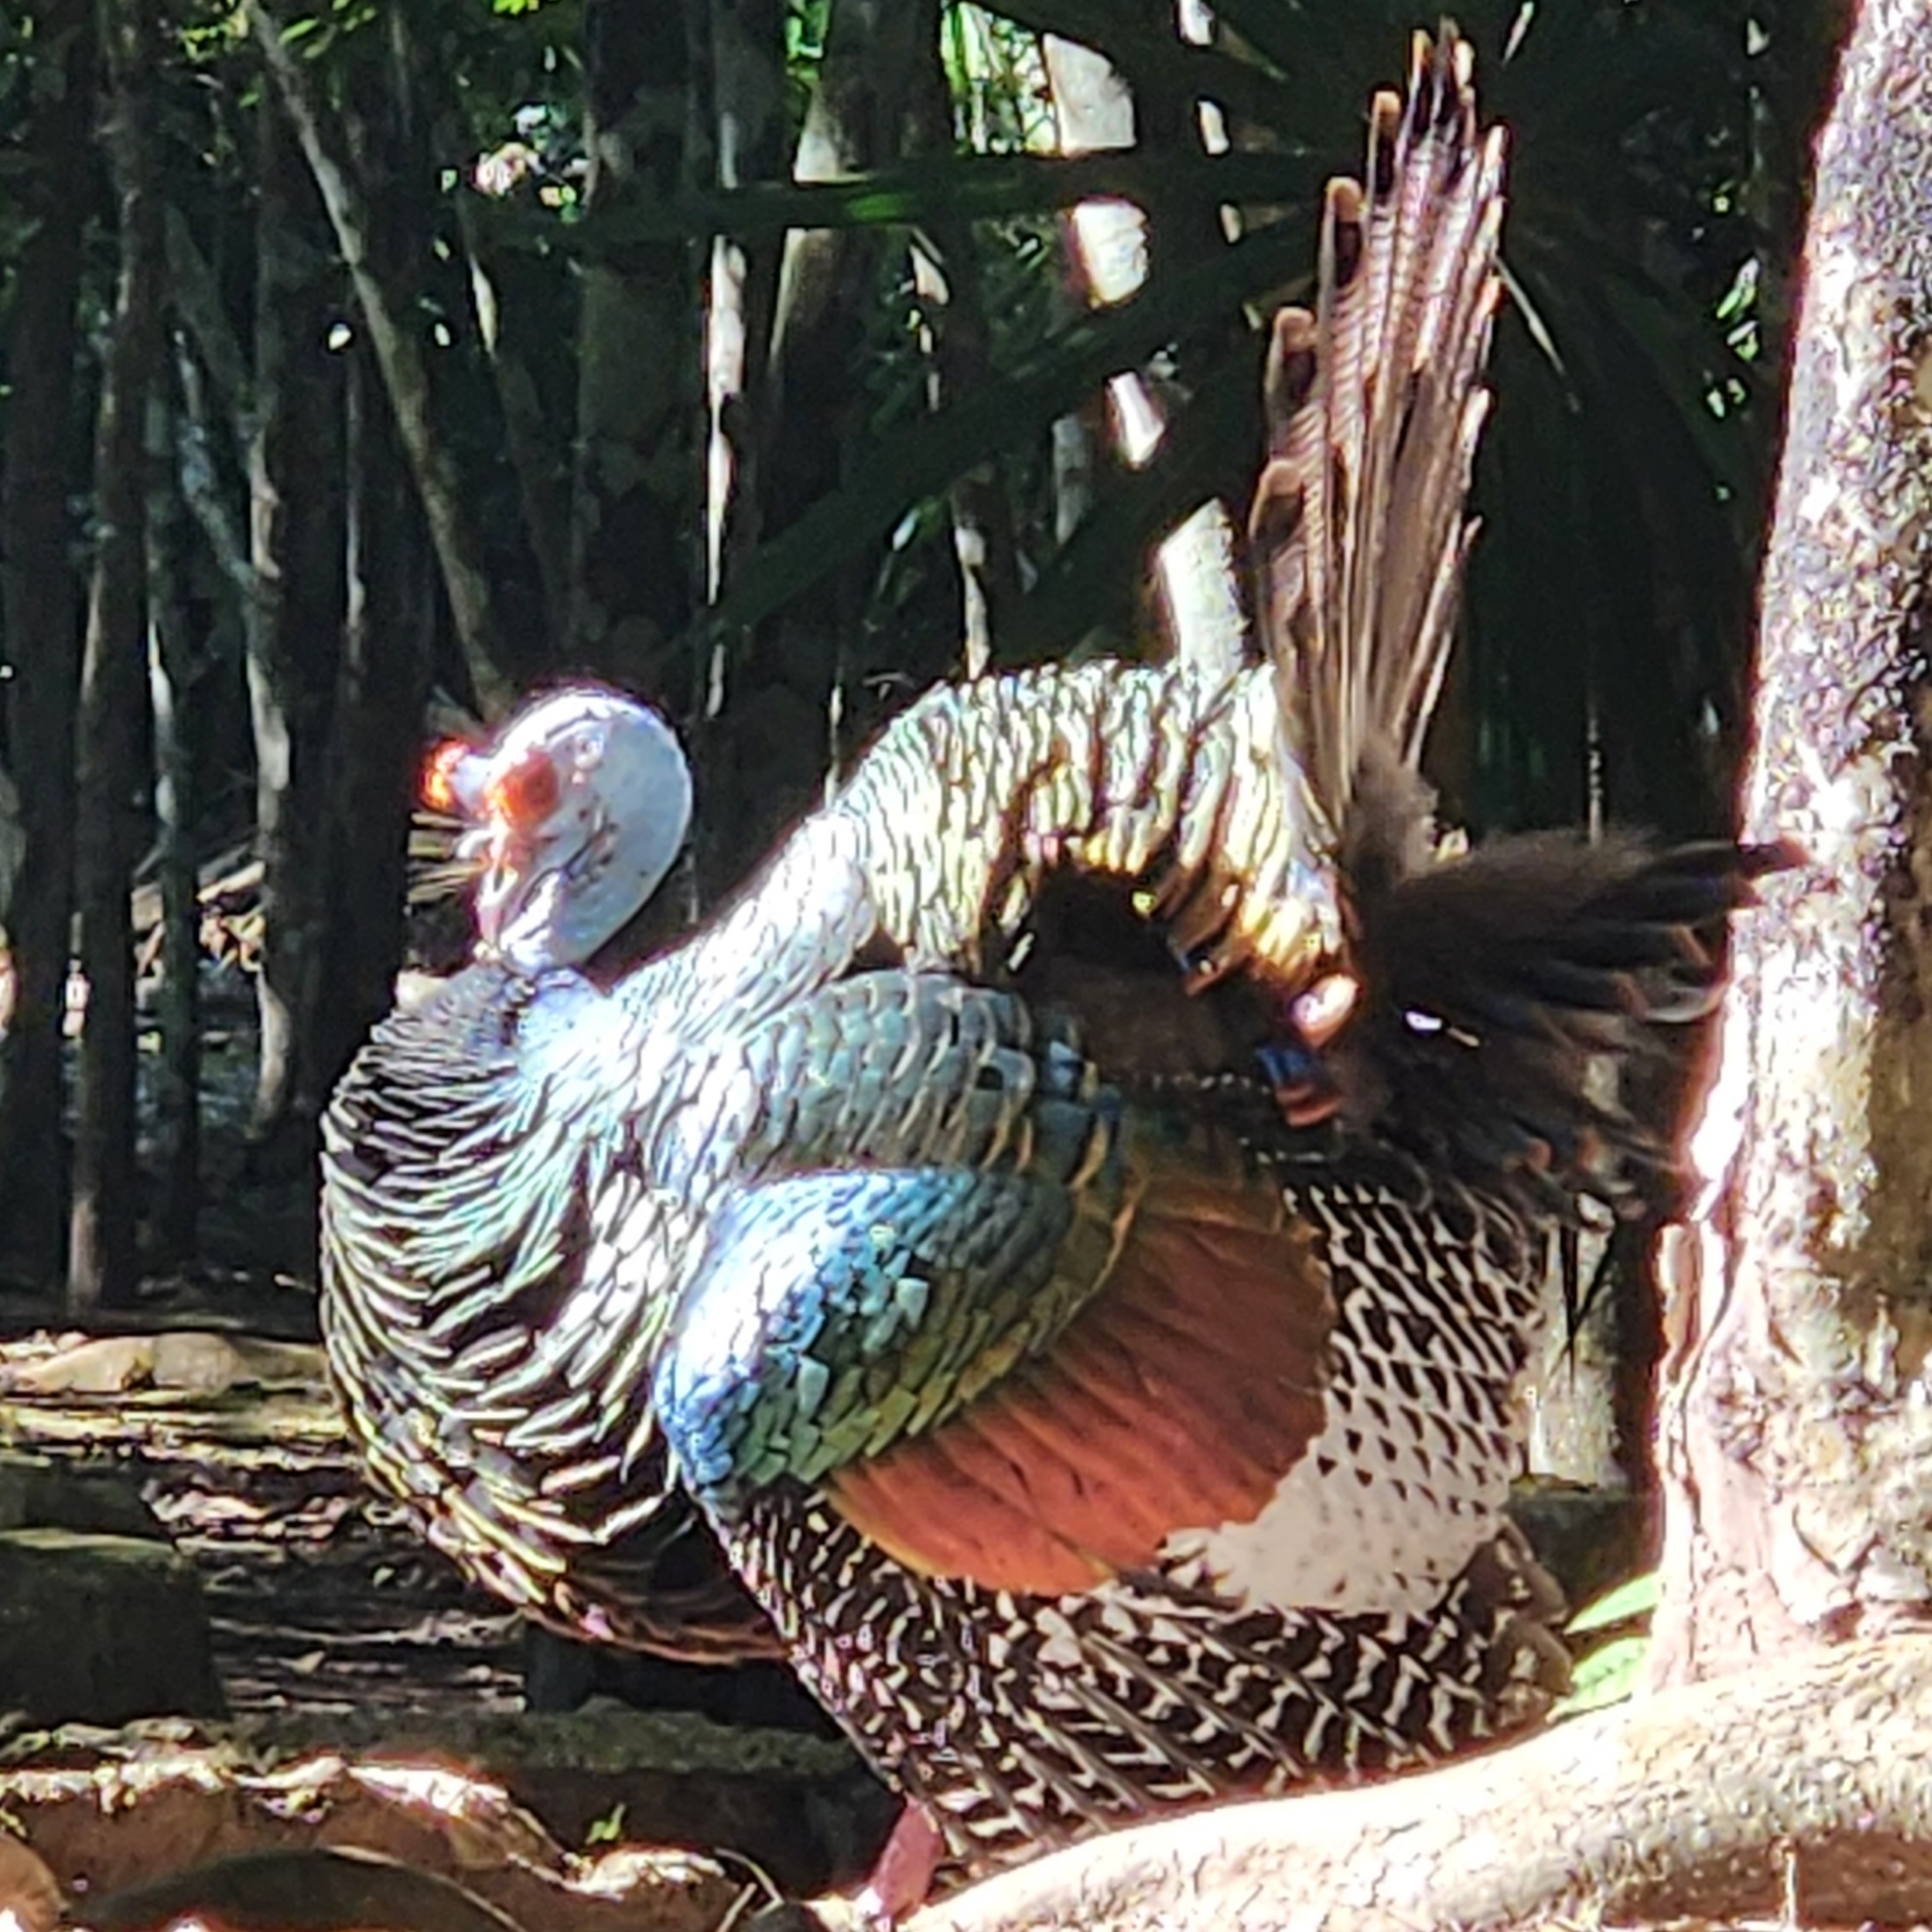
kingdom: Animalia
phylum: Chordata
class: Aves
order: Galliformes
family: Phasianidae
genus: Meleagris
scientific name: Meleagris ocellata
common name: Ocellated turkey
